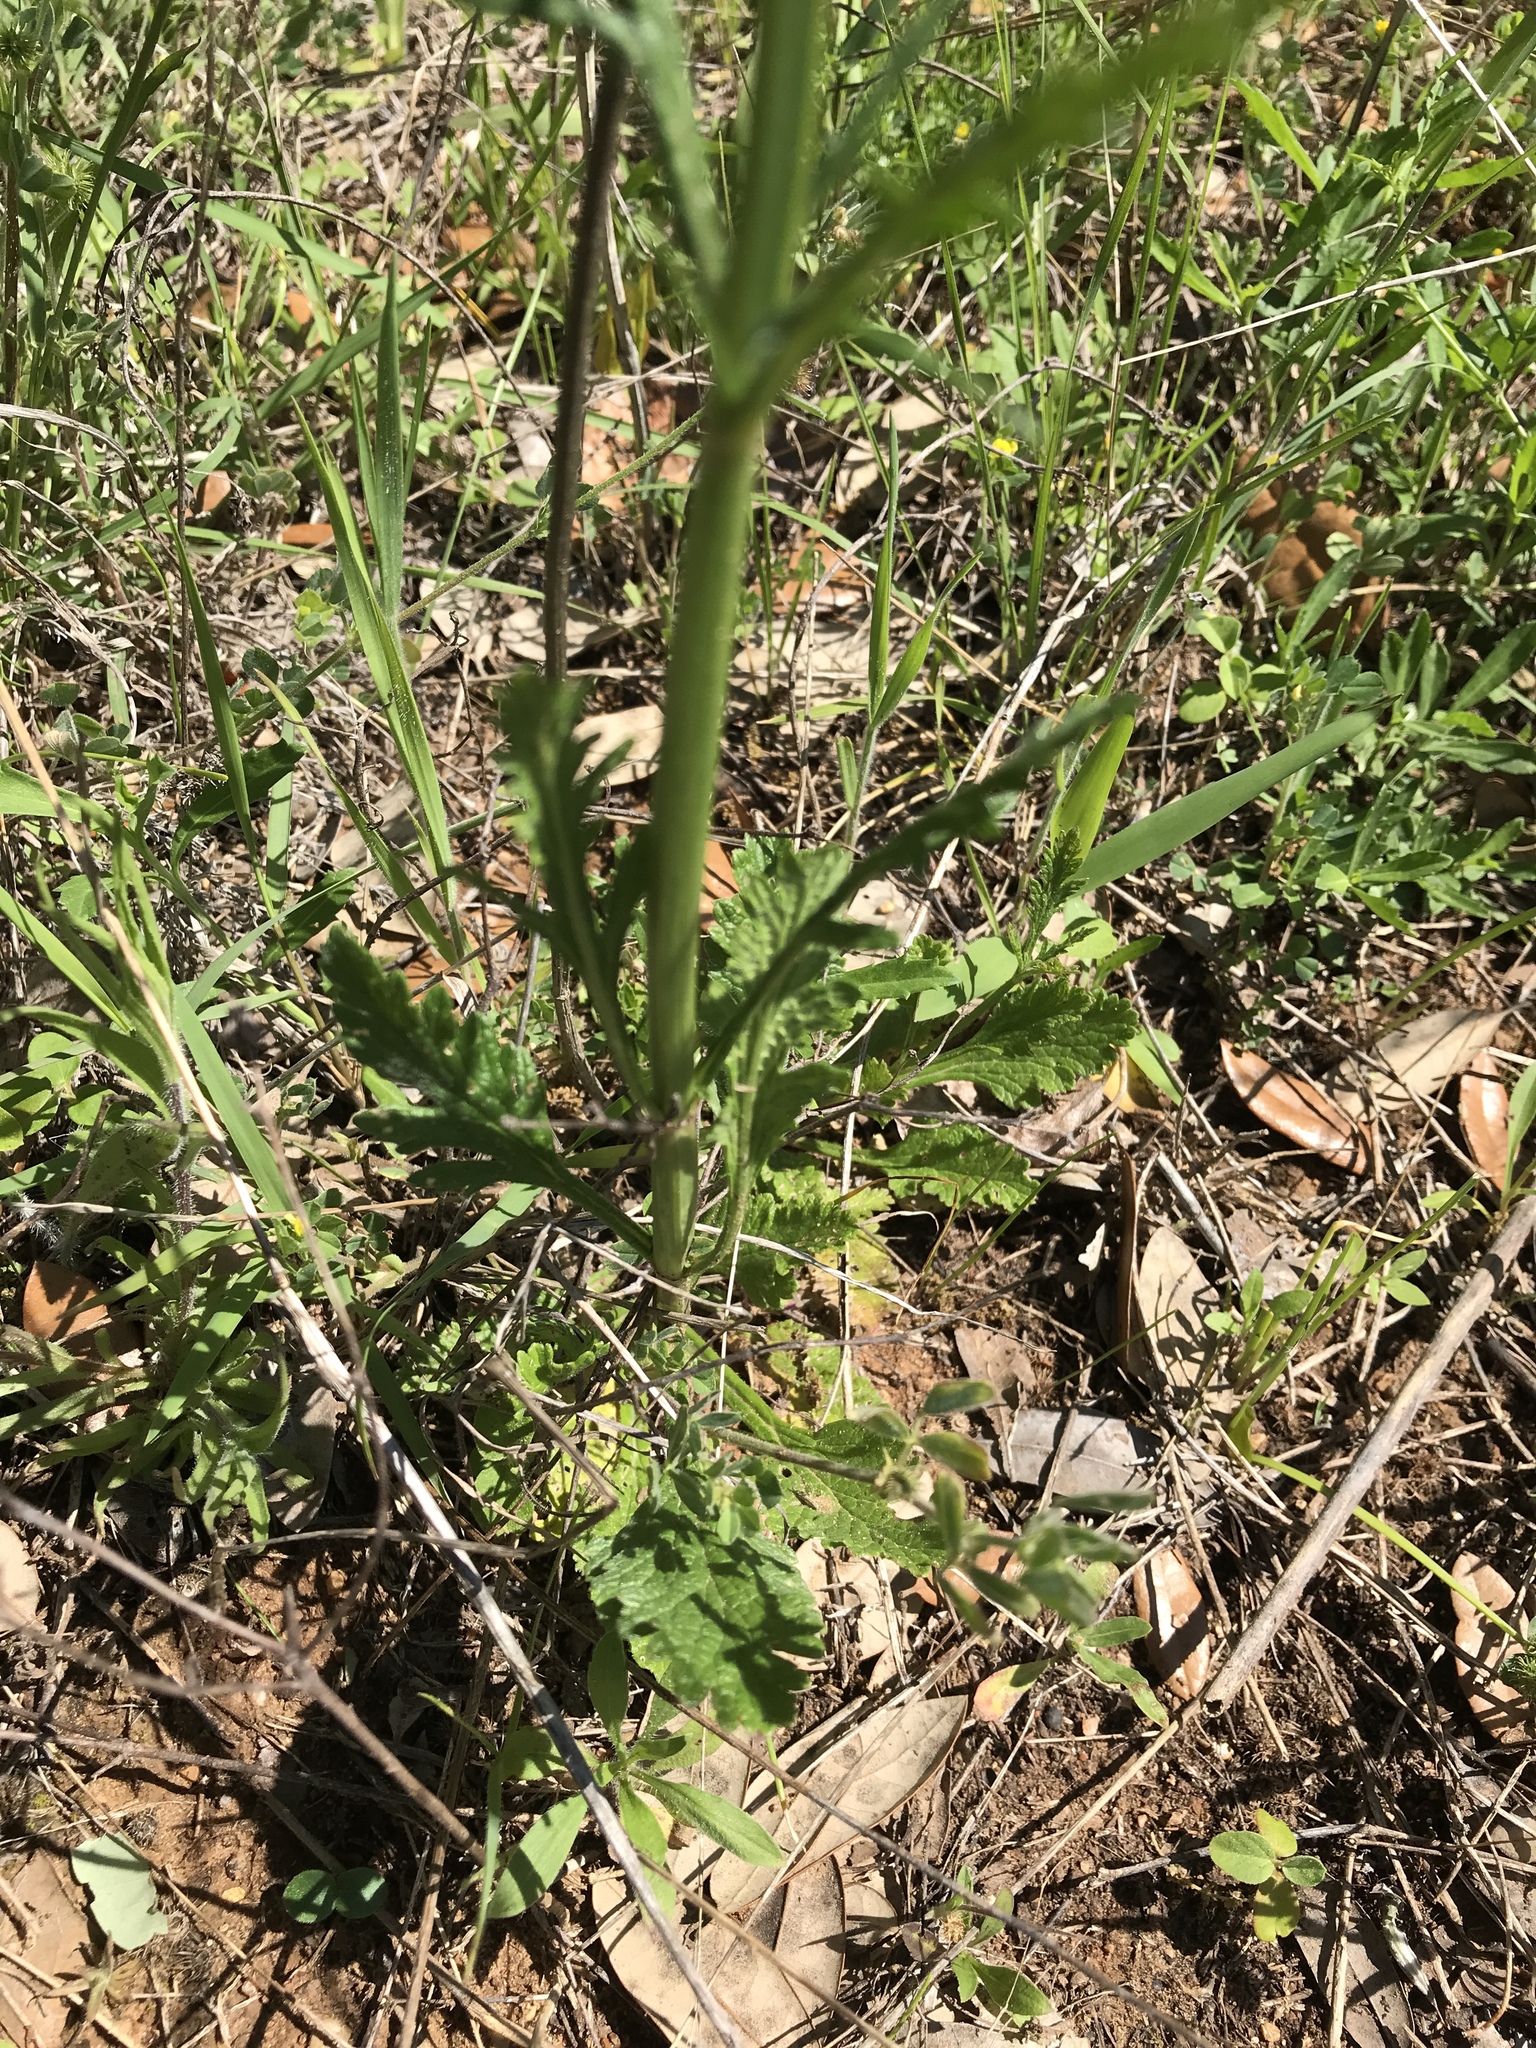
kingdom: Plantae
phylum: Tracheophyta
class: Magnoliopsida
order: Lamiales
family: Verbenaceae
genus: Verbena
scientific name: Verbena halei
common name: Texas vervain
